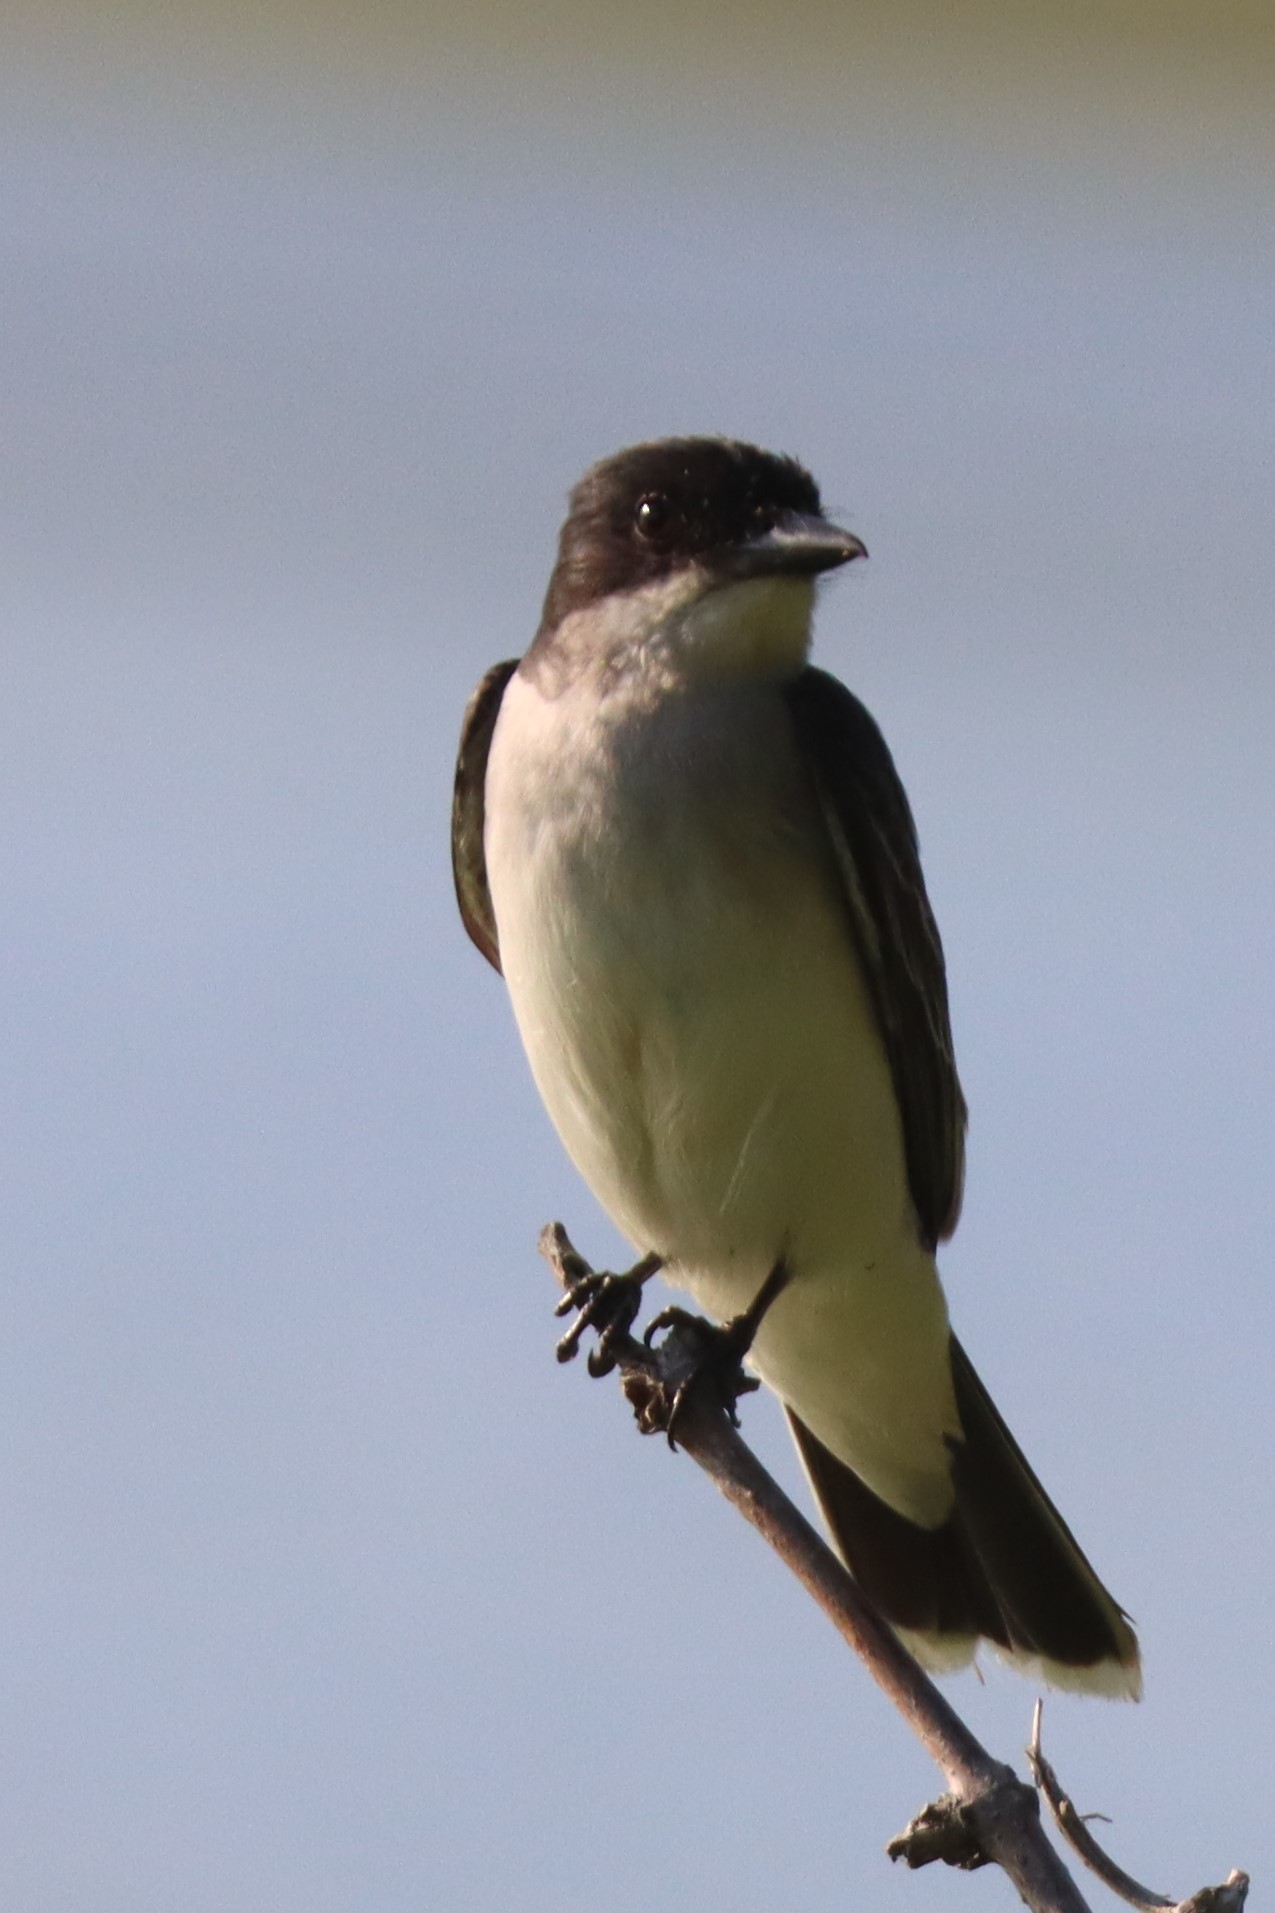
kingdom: Animalia
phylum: Chordata
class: Aves
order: Passeriformes
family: Tyrannidae
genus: Tyrannus
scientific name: Tyrannus tyrannus
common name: Eastern kingbird
